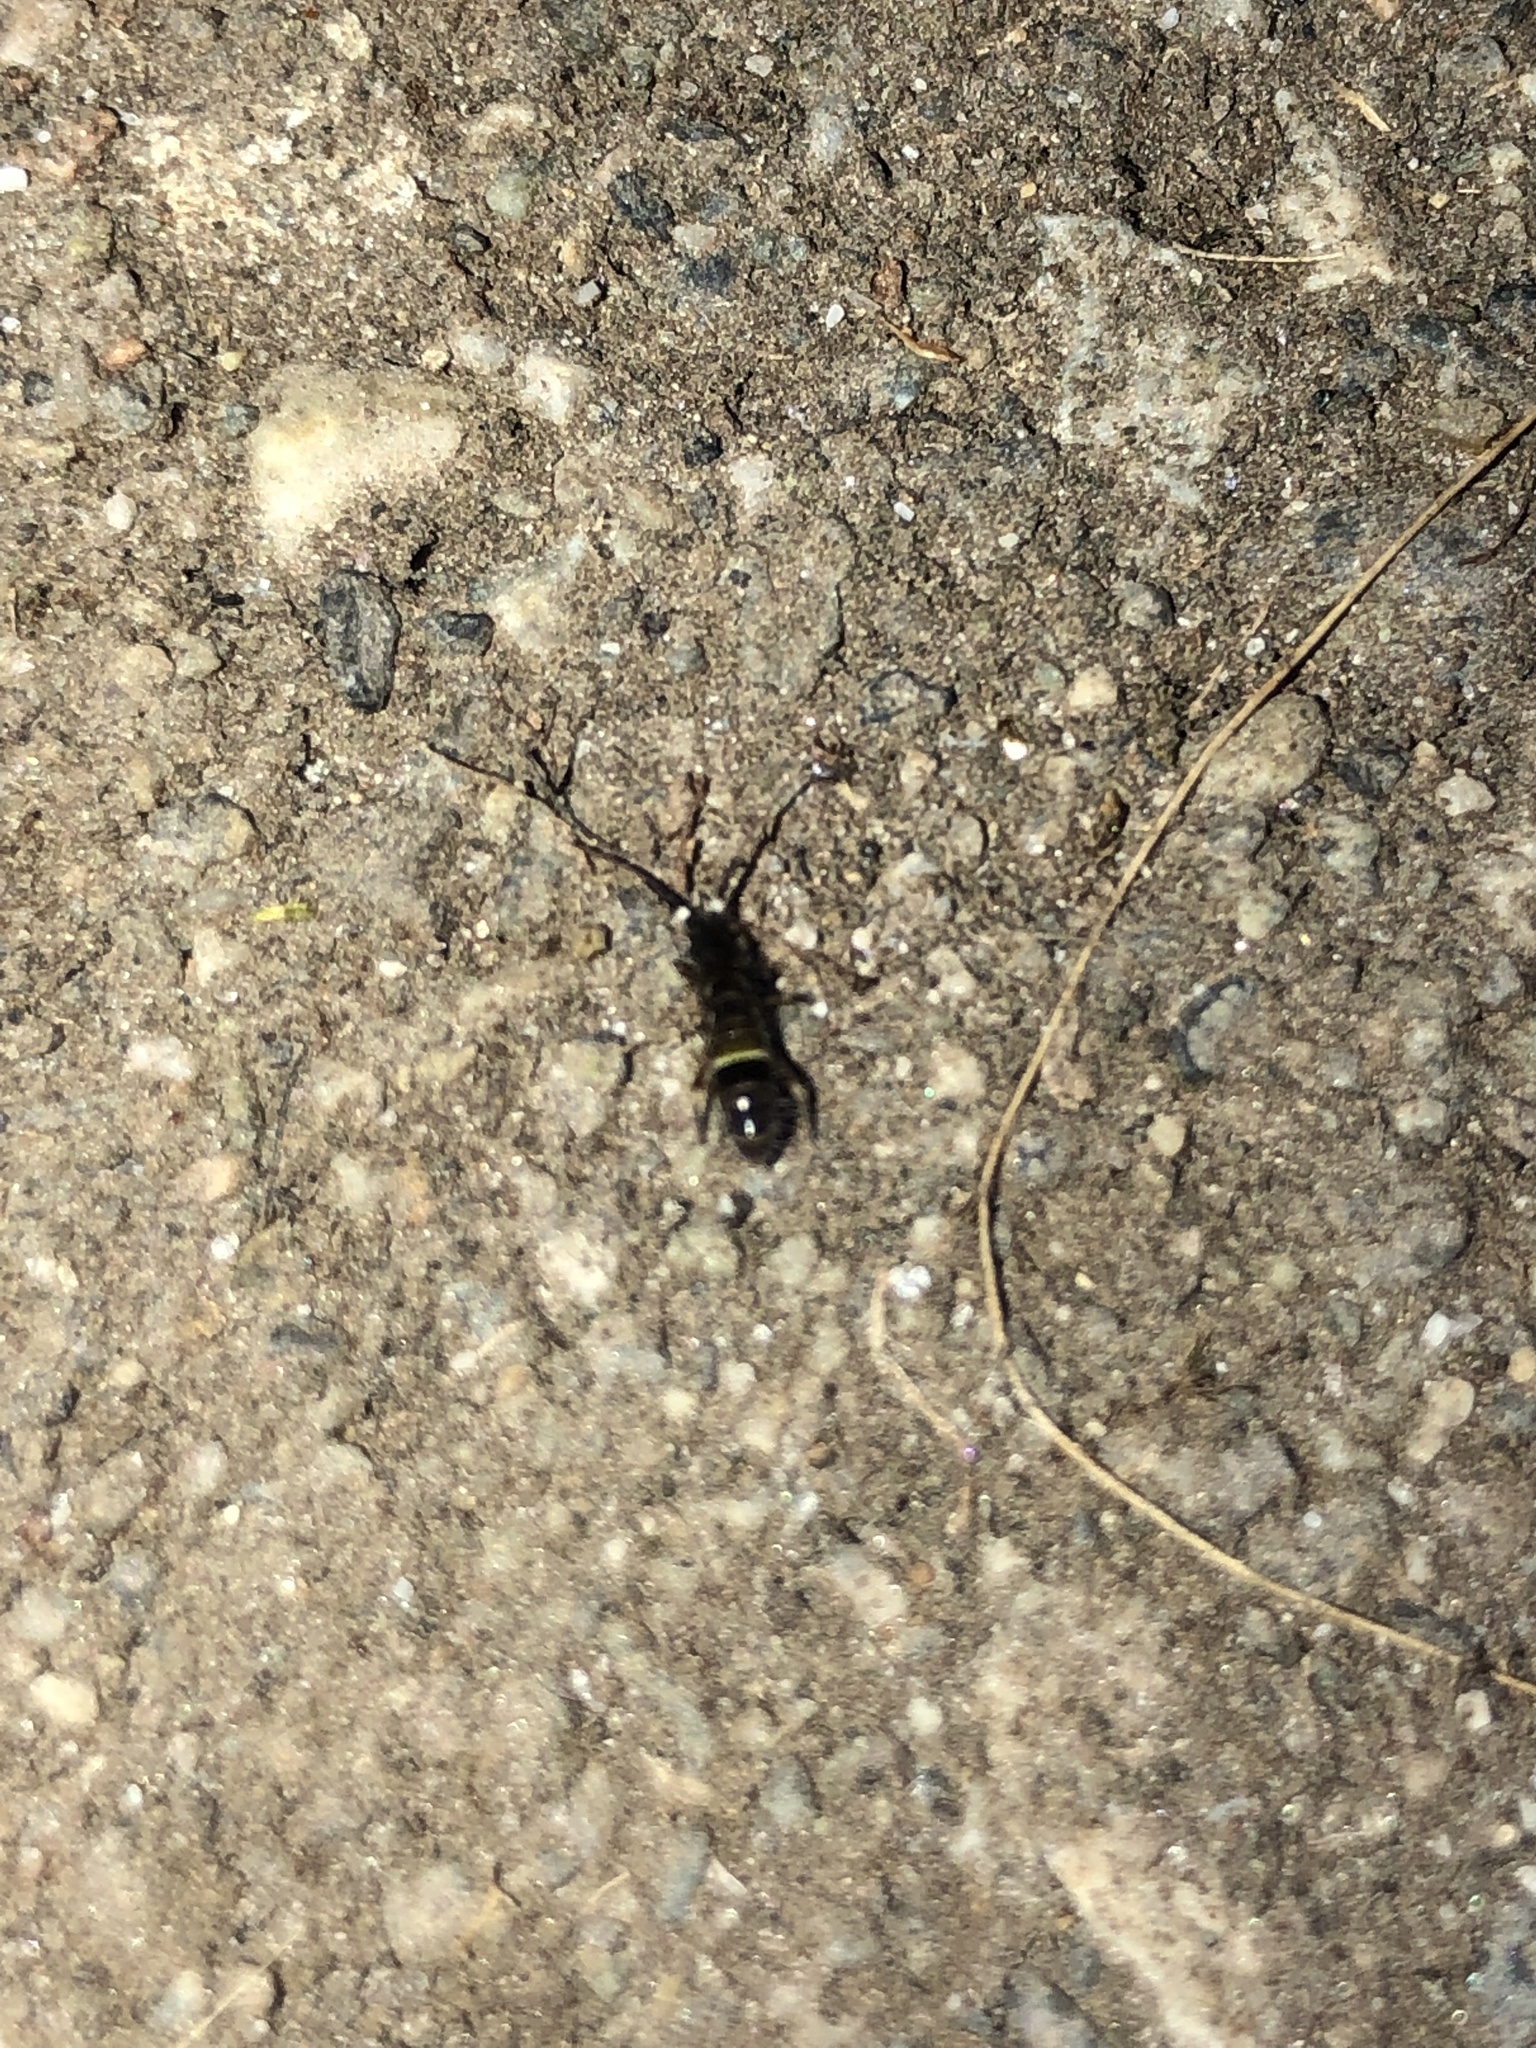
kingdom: Animalia
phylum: Arthropoda
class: Collembola
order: Entomobryomorpha
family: Orchesellidae
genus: Orchesella
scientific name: Orchesella cincta
